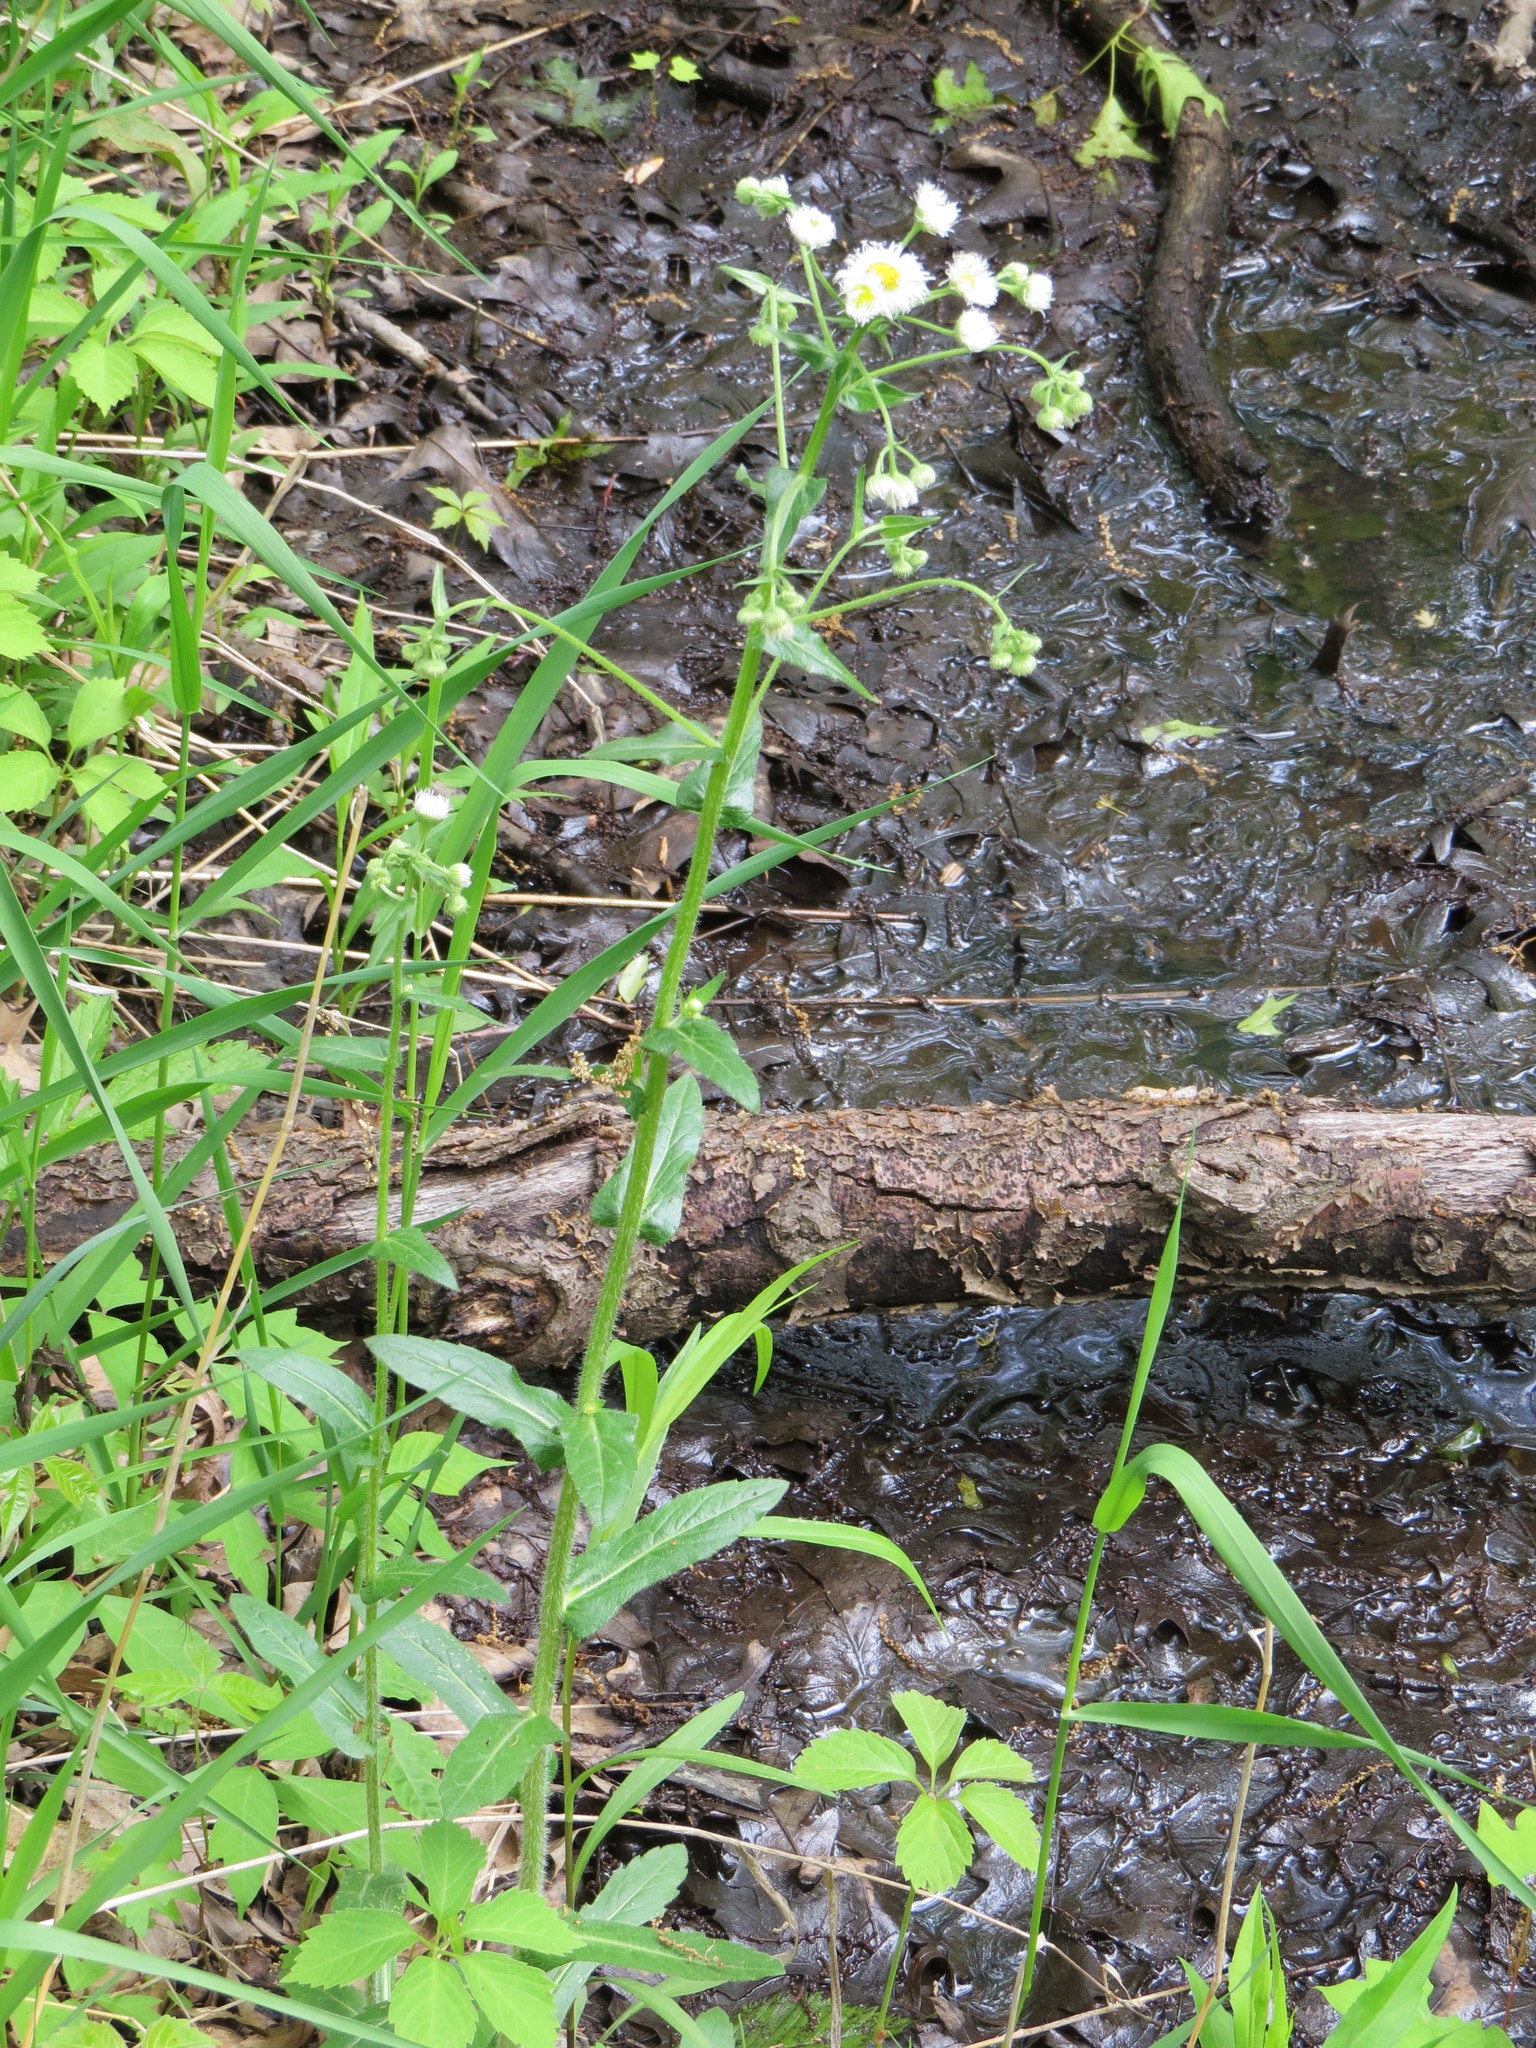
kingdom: Plantae
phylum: Tracheophyta
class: Magnoliopsida
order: Asterales
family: Asteraceae
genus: Erigeron
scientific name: Erigeron philadelphicus
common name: Robin's-plantain
